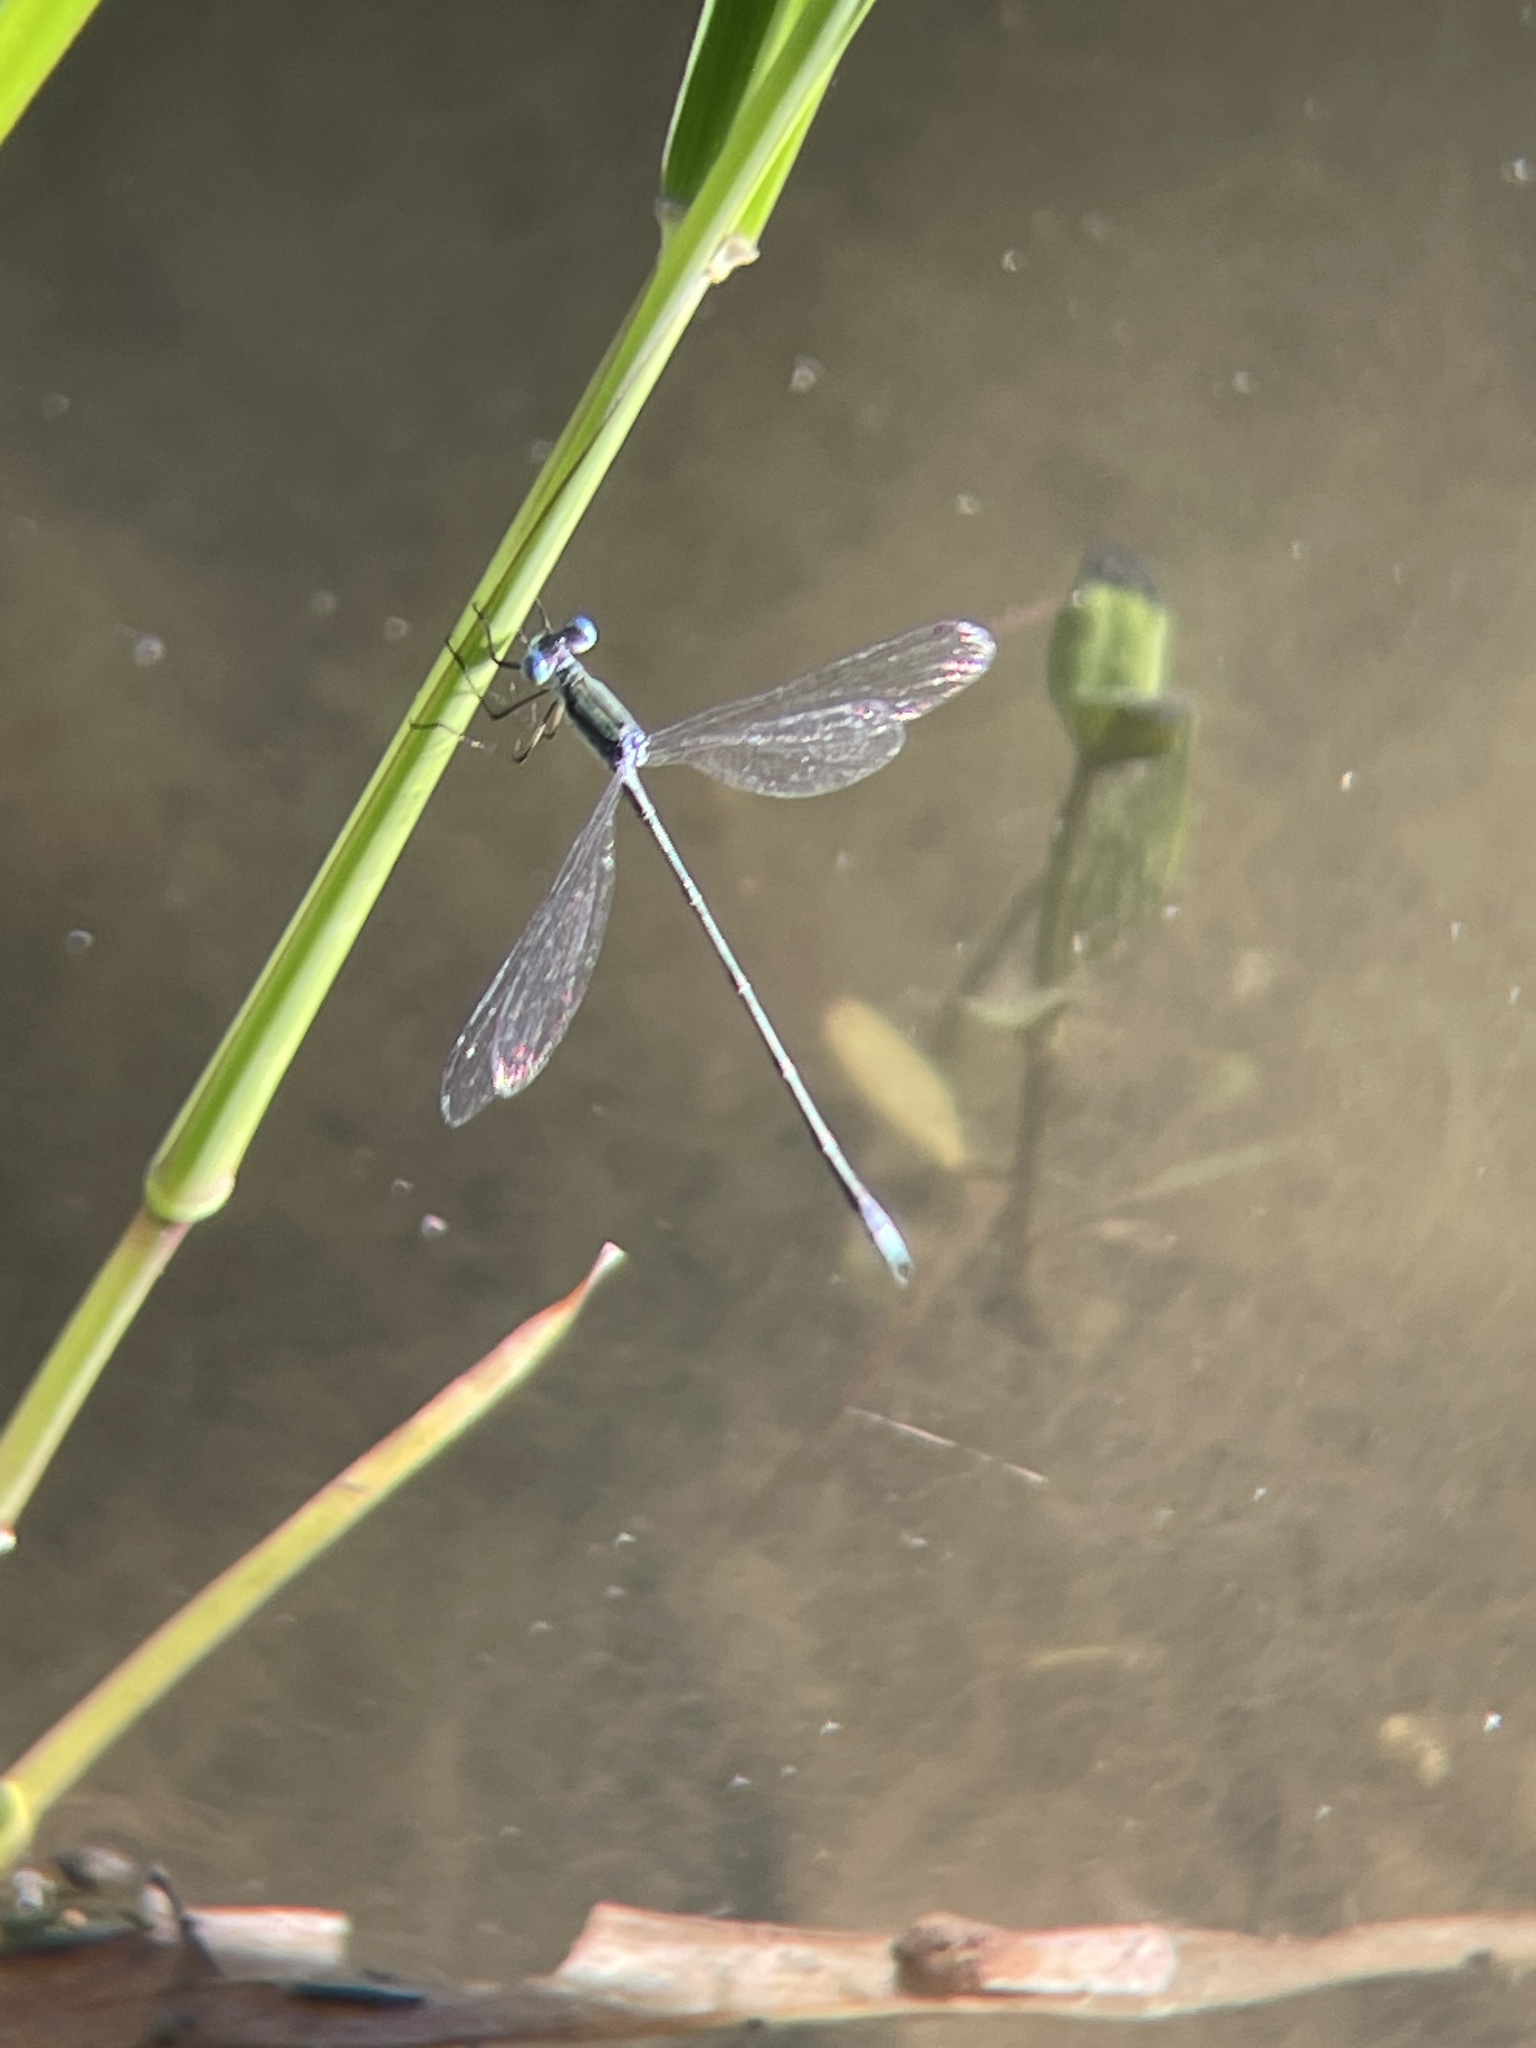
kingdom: Animalia
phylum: Arthropoda
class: Insecta
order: Odonata
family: Lestidae
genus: Lestes
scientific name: Lestes forficula
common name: Rainpool spreadwing
